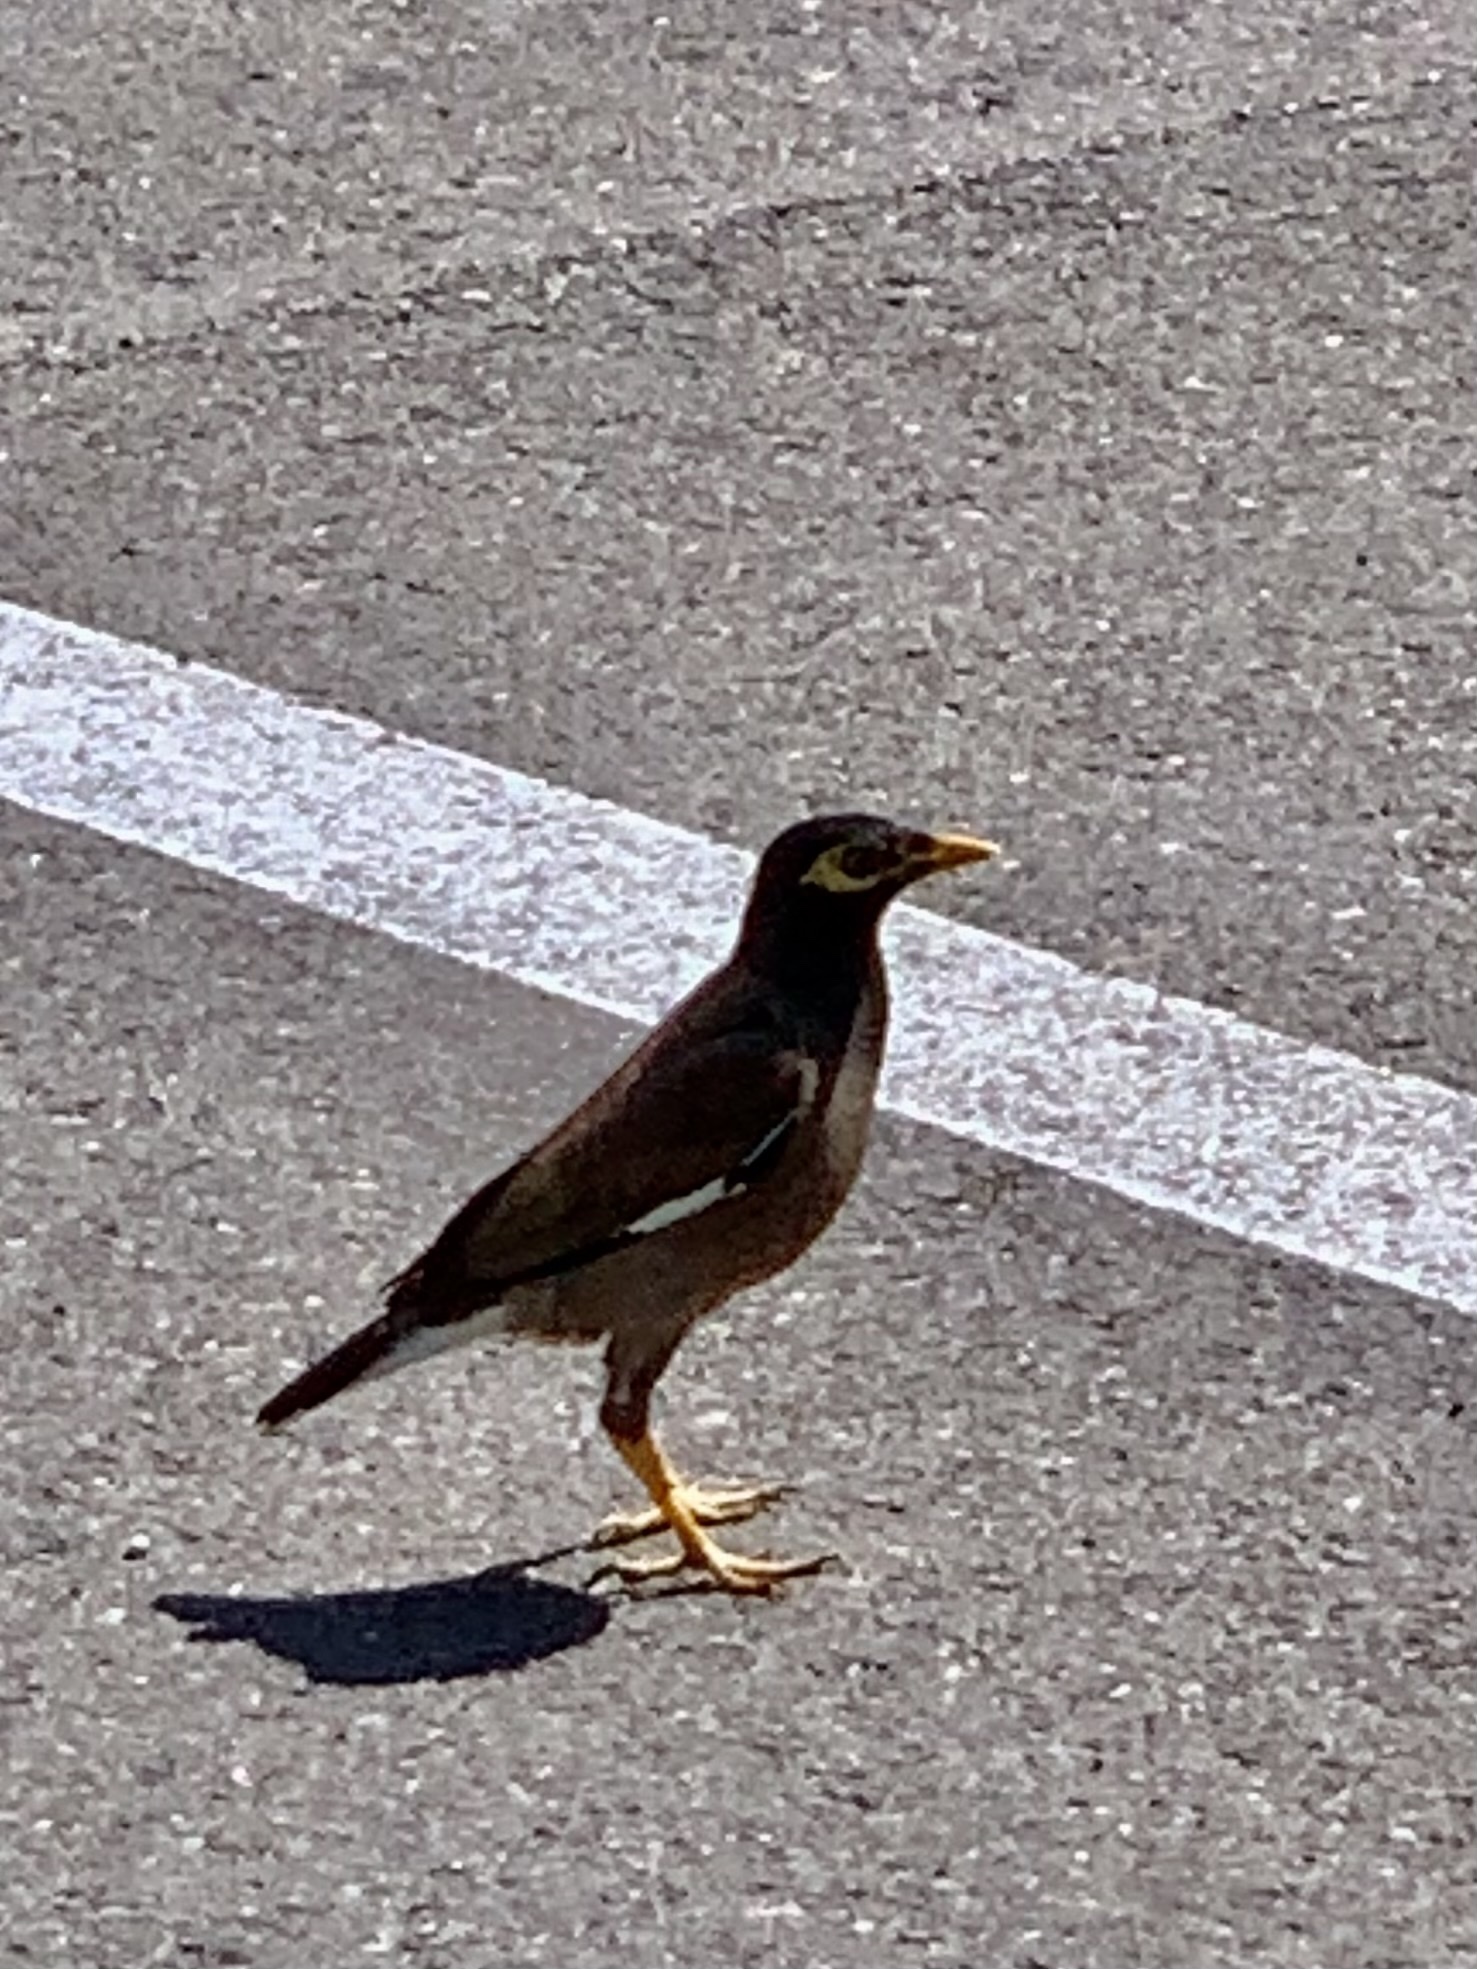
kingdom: Animalia
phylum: Chordata
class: Aves
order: Passeriformes
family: Sturnidae
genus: Acridotheres
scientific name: Acridotheres tristis
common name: Common myna
